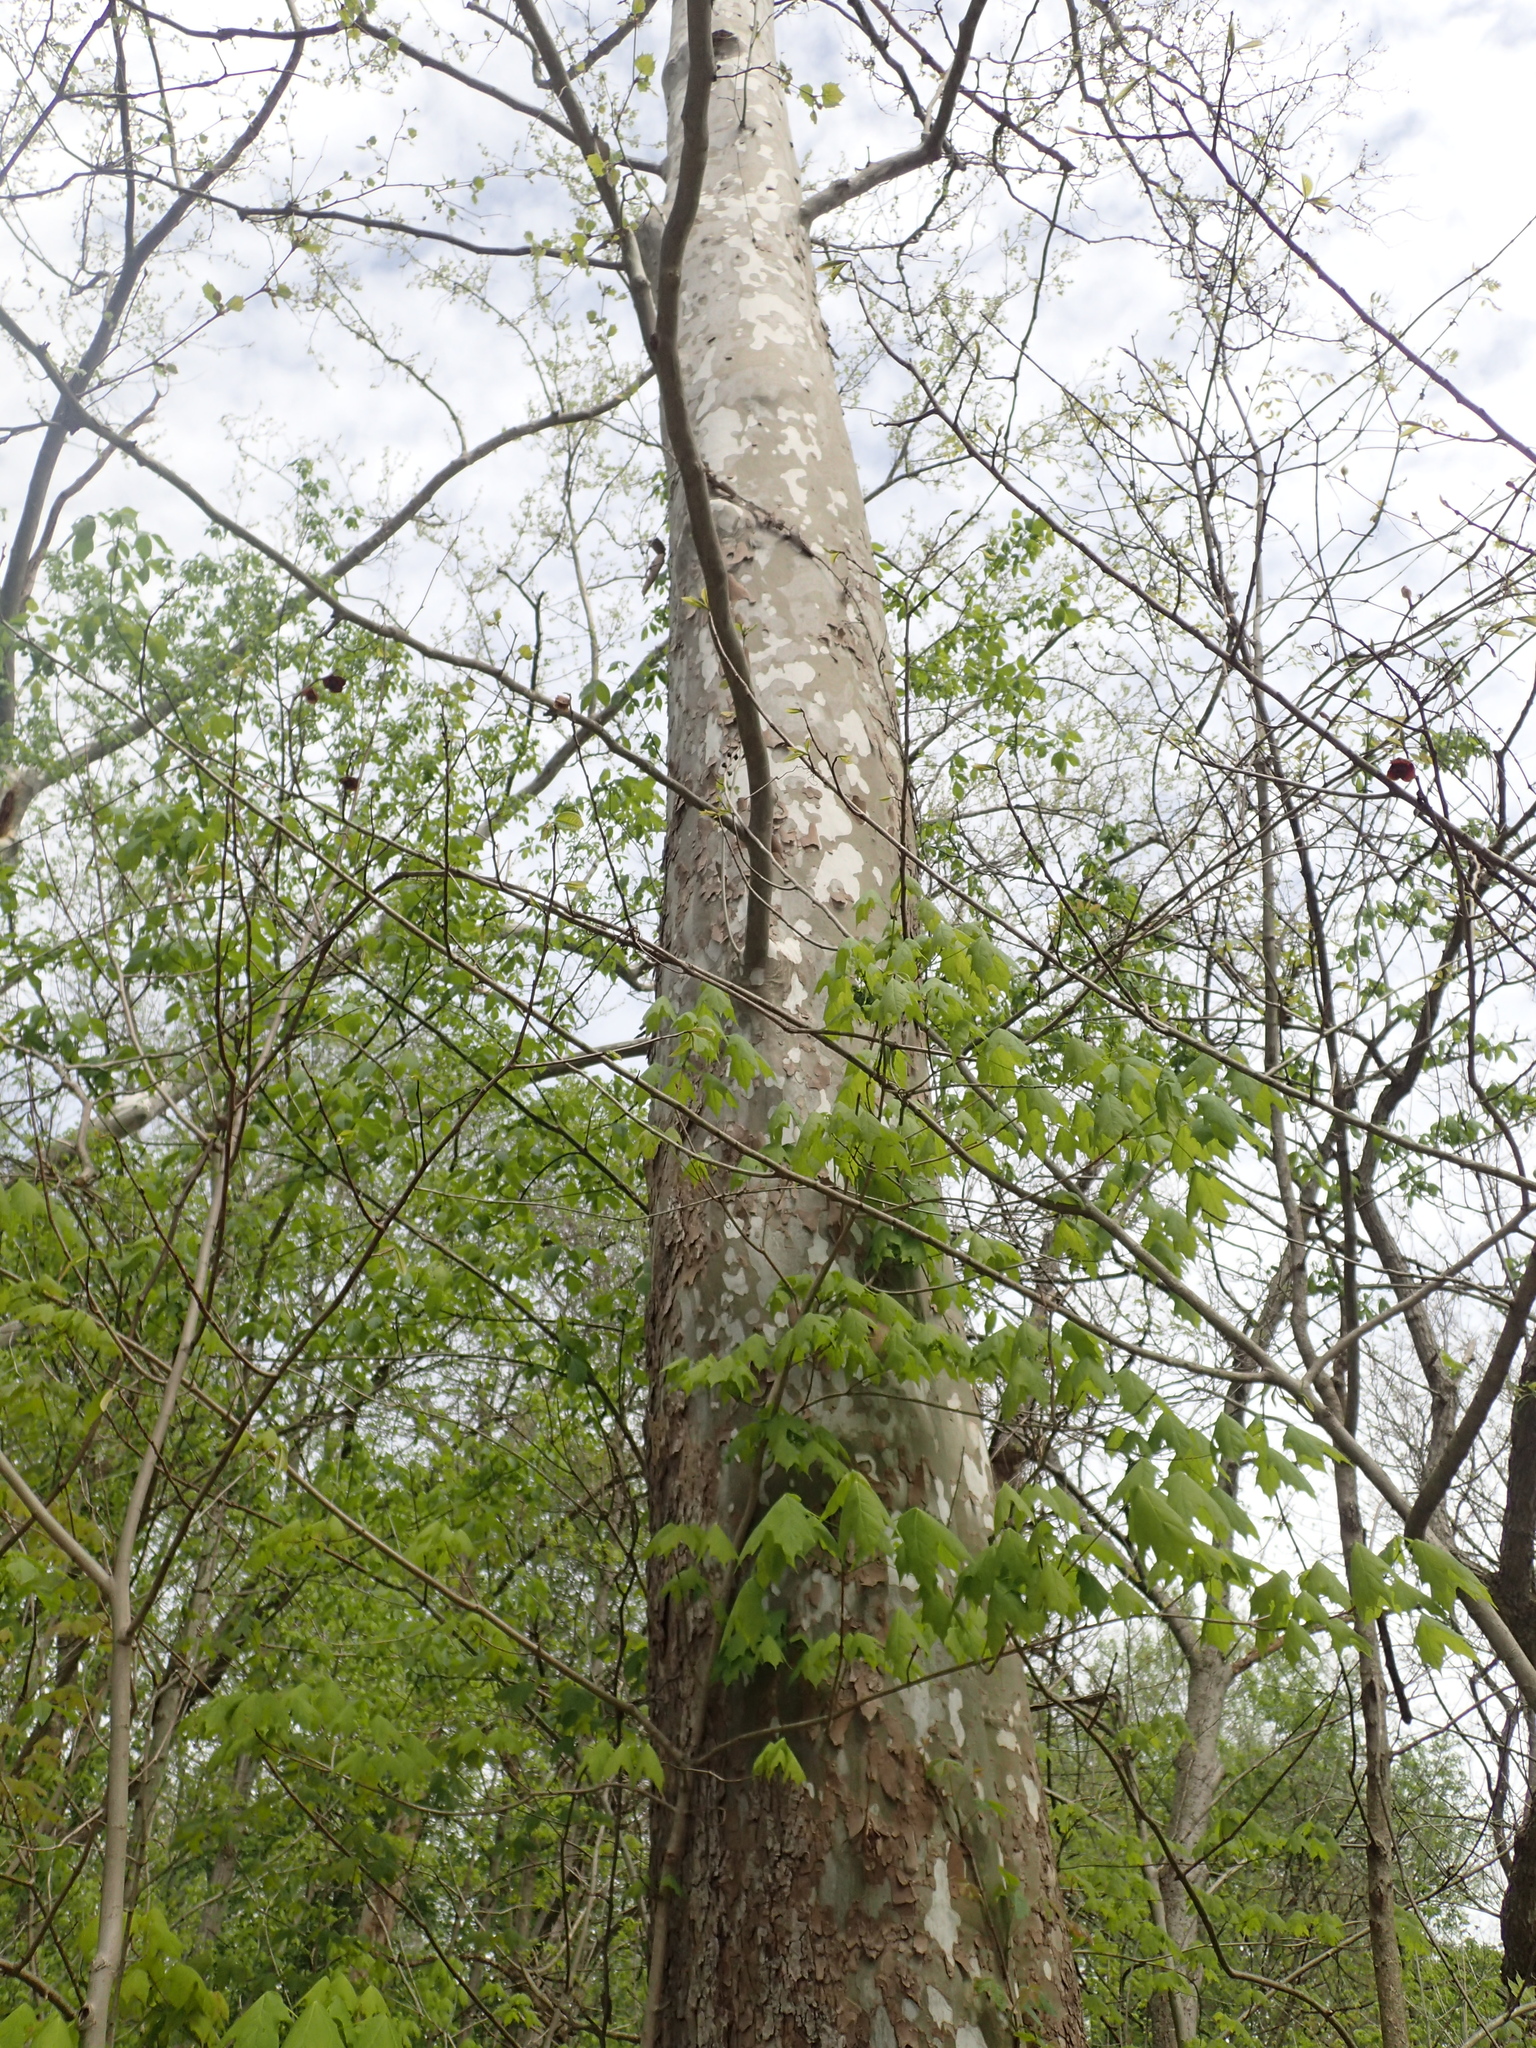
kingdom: Plantae
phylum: Tracheophyta
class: Magnoliopsida
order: Proteales
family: Platanaceae
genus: Platanus
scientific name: Platanus occidentalis
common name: American sycamore
